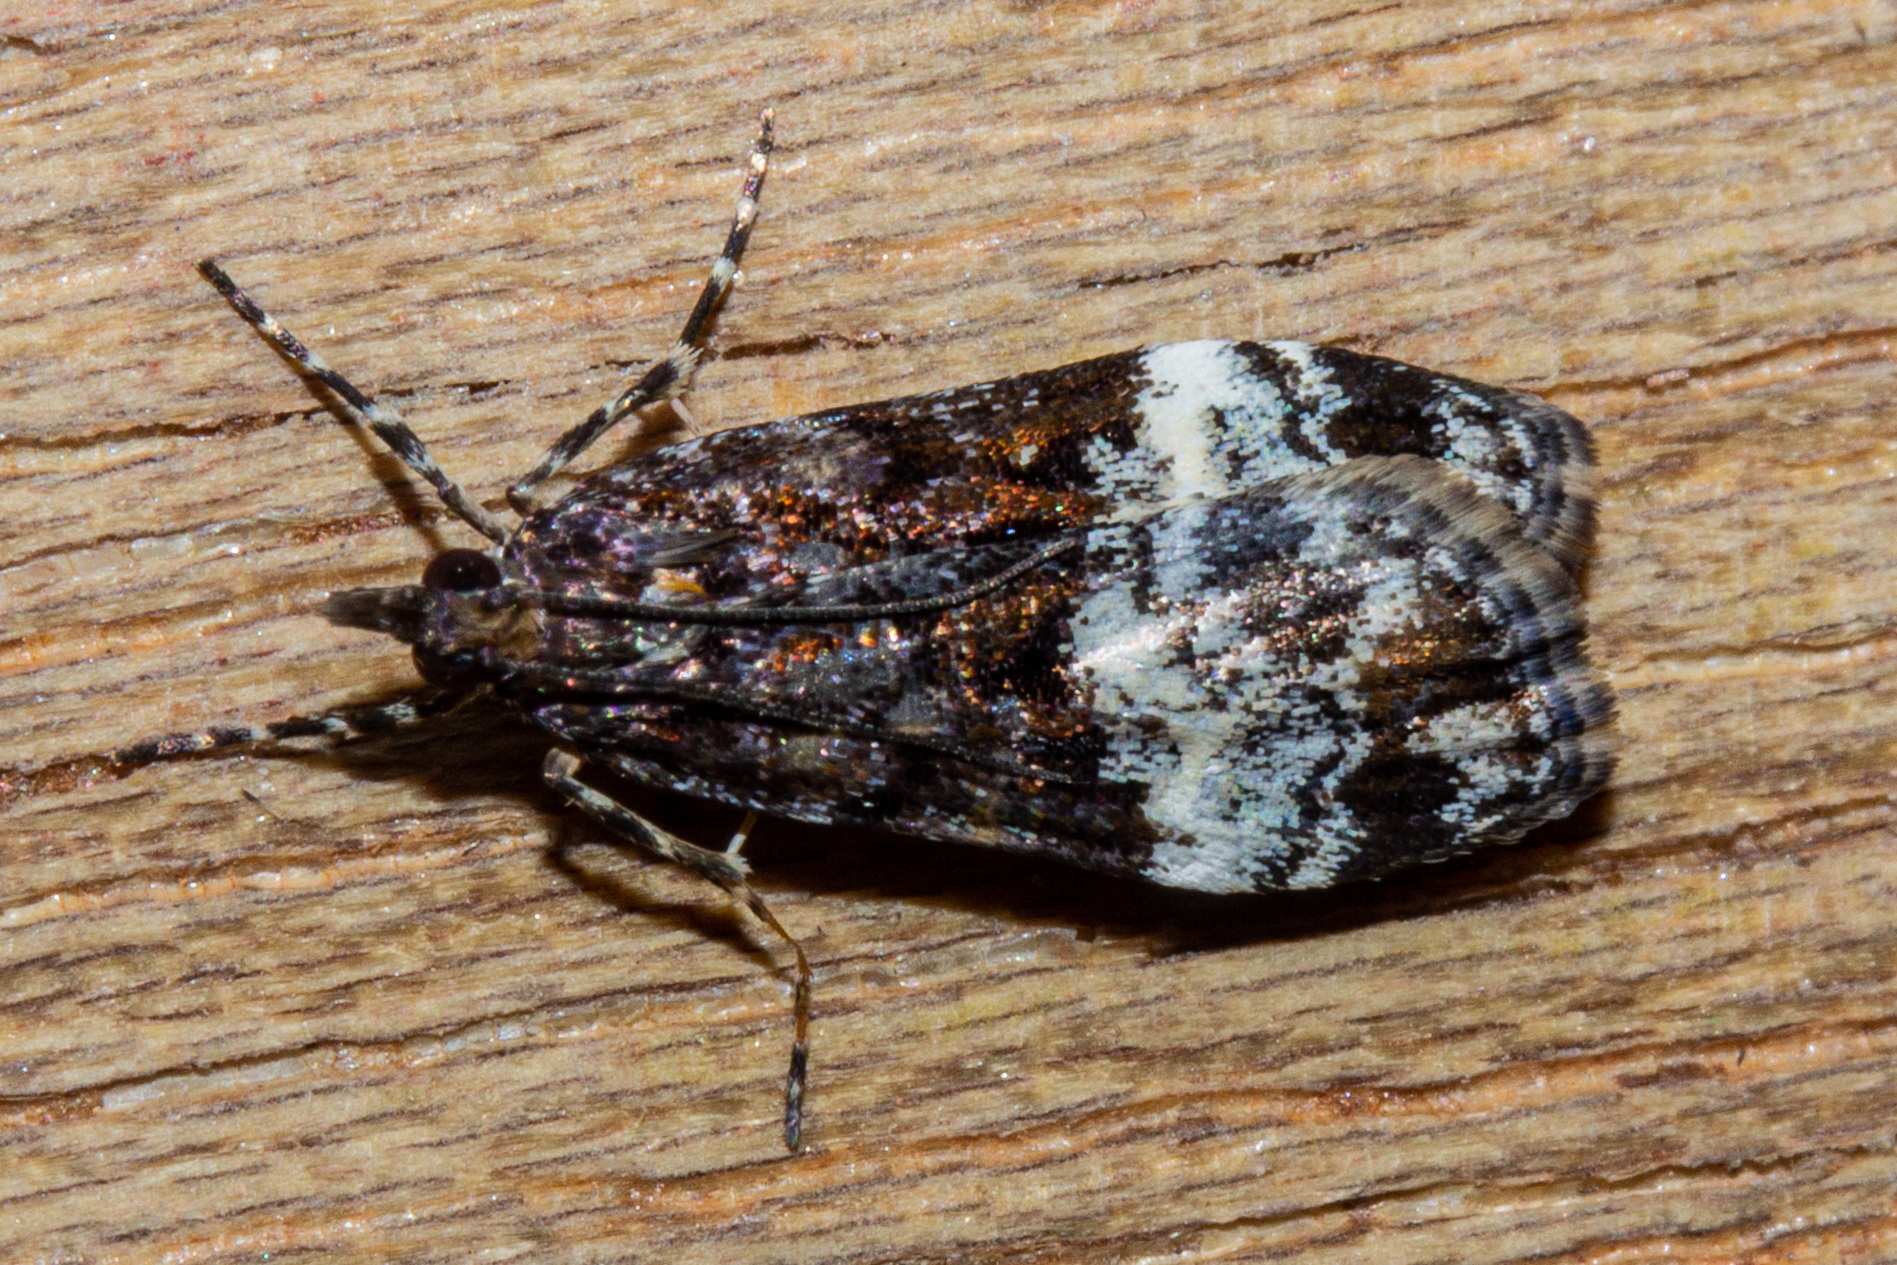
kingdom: Animalia
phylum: Arthropoda
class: Insecta
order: Lepidoptera
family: Crambidae
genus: Scoparia
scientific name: Scoparia minusculalis
